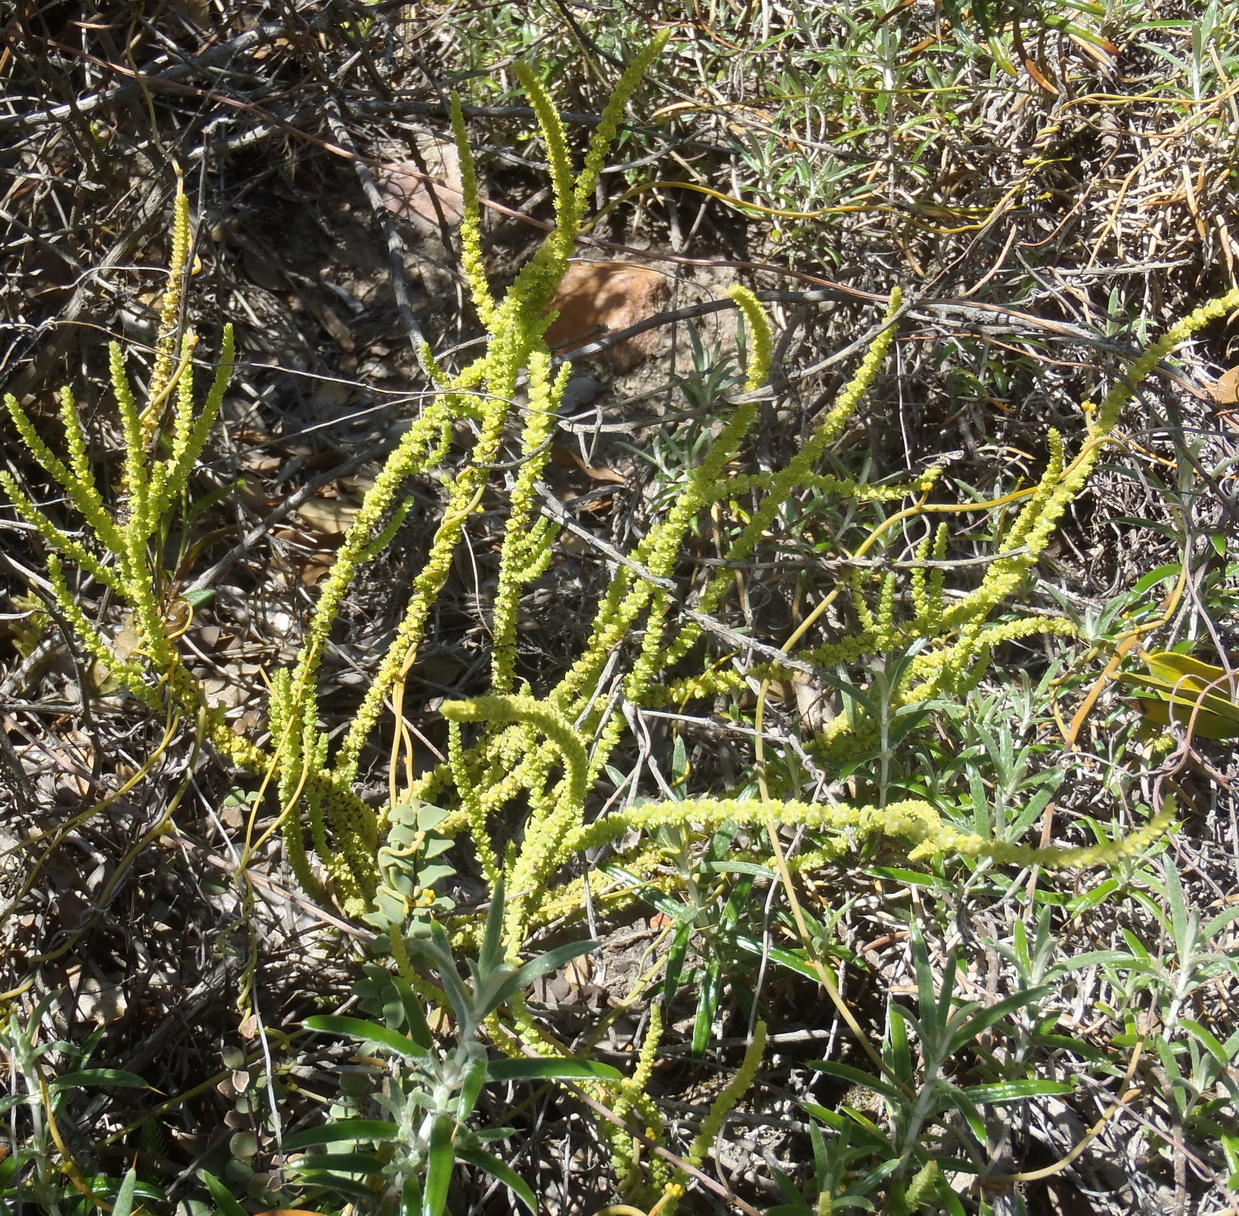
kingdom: Plantae
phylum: Tracheophyta
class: Magnoliopsida
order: Saxifragales
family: Crassulaceae
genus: Crassula
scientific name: Crassula muscosa
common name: Toy-cypress
